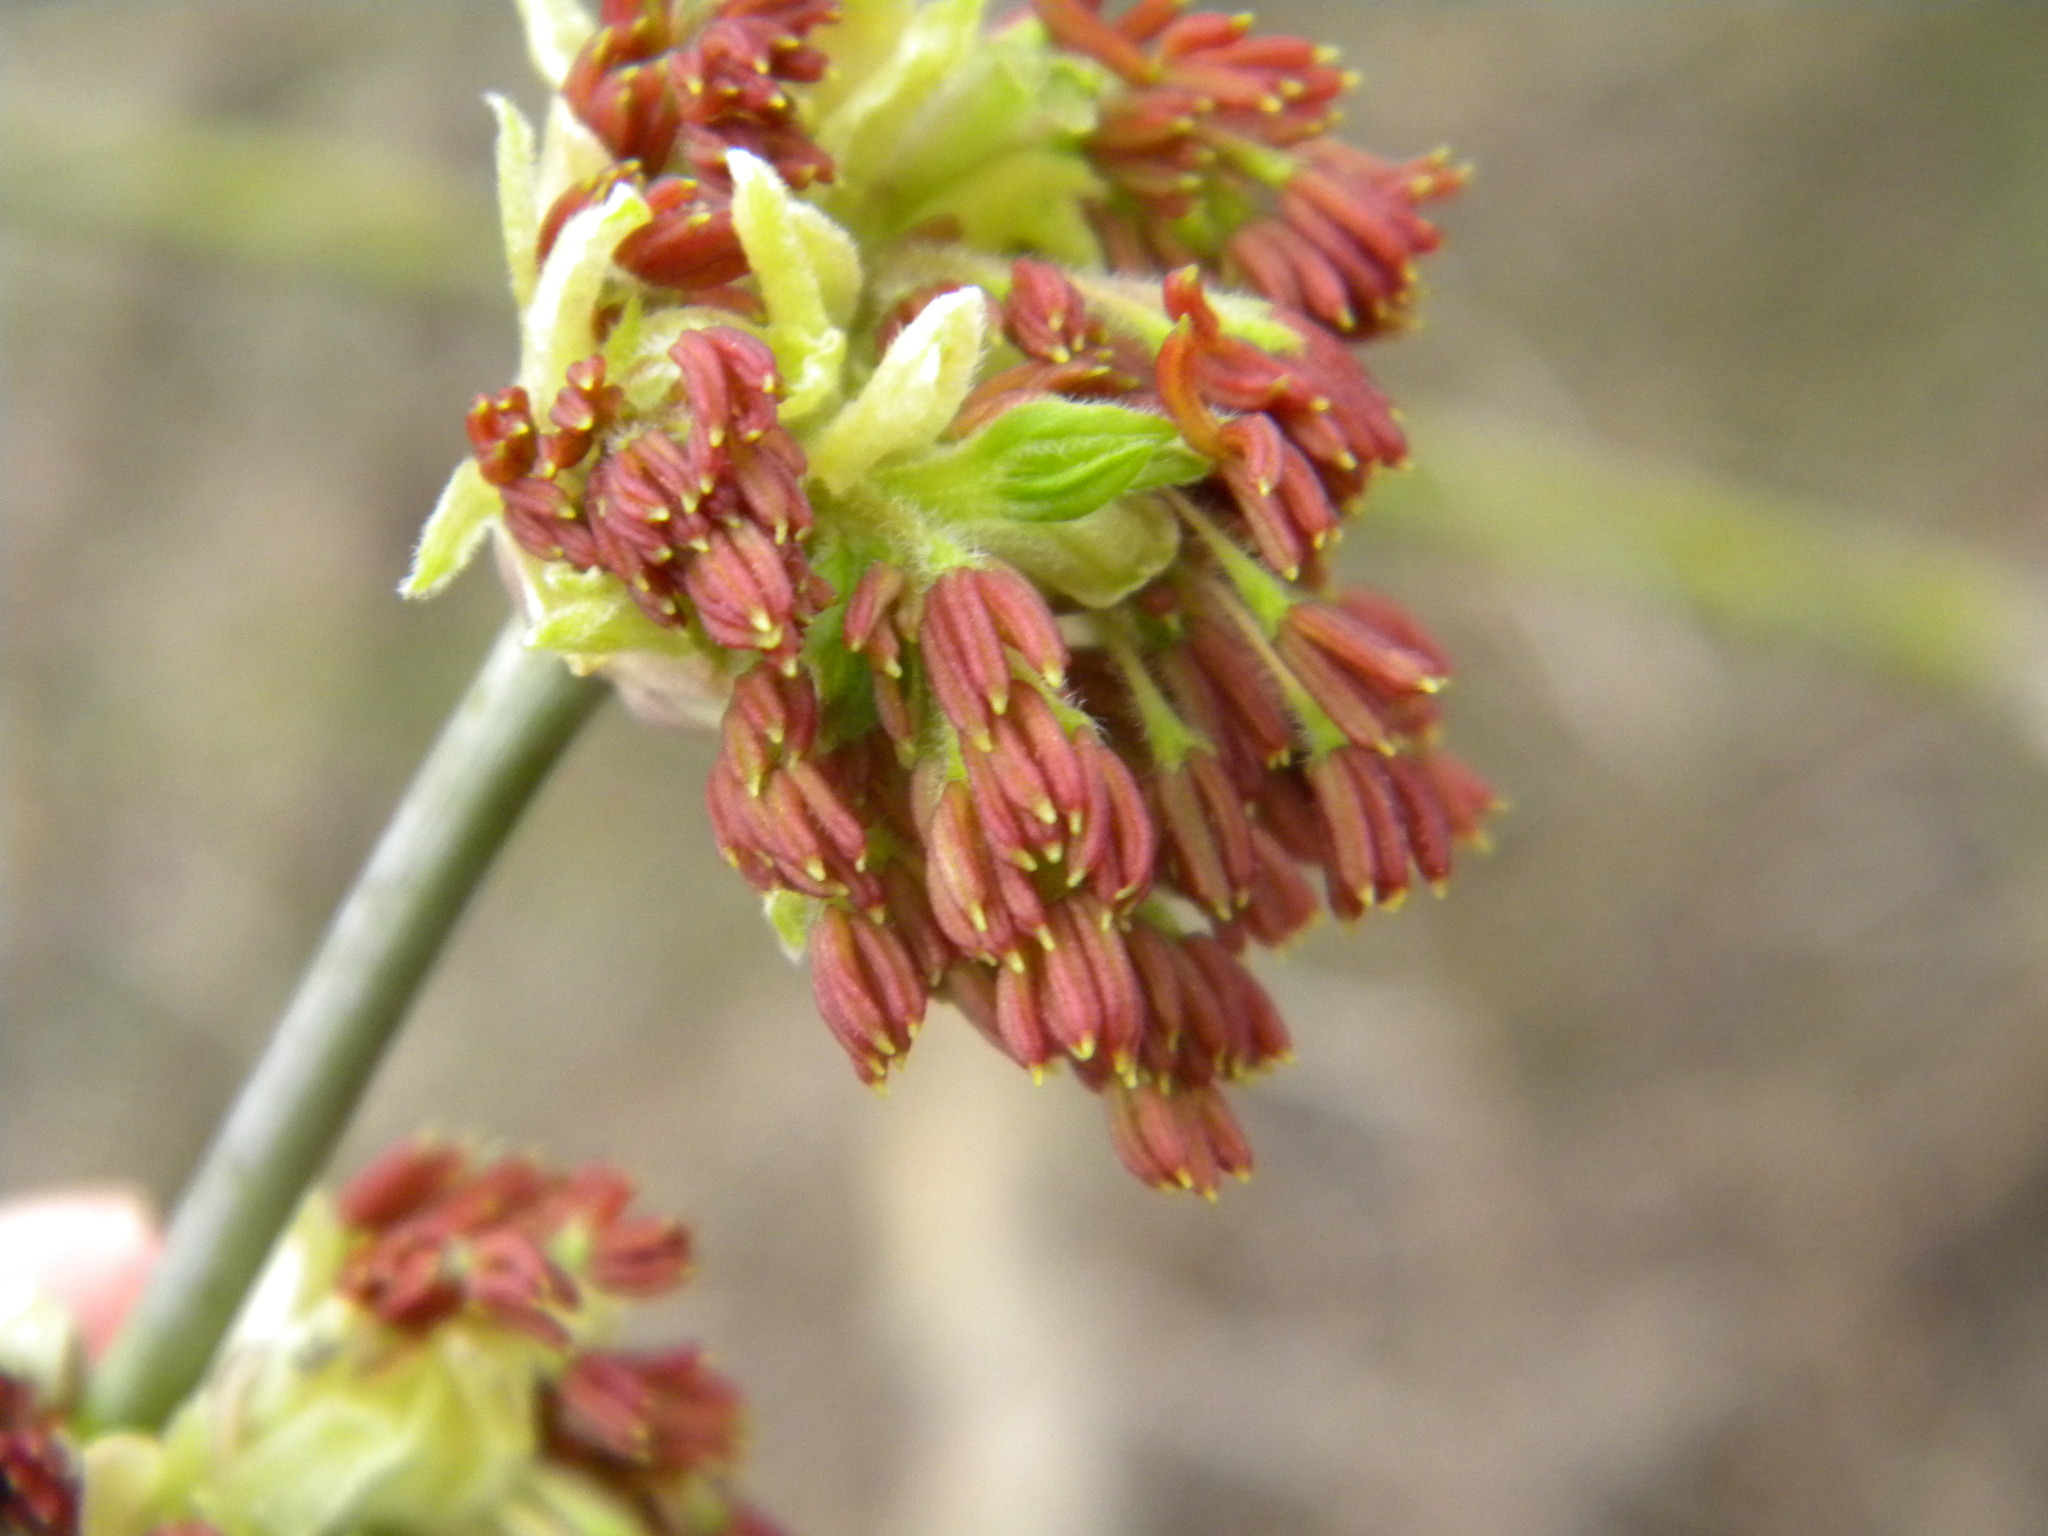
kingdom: Plantae
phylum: Tracheophyta
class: Magnoliopsida
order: Sapindales
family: Sapindaceae
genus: Acer
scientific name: Acer negundo
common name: Ashleaf maple
